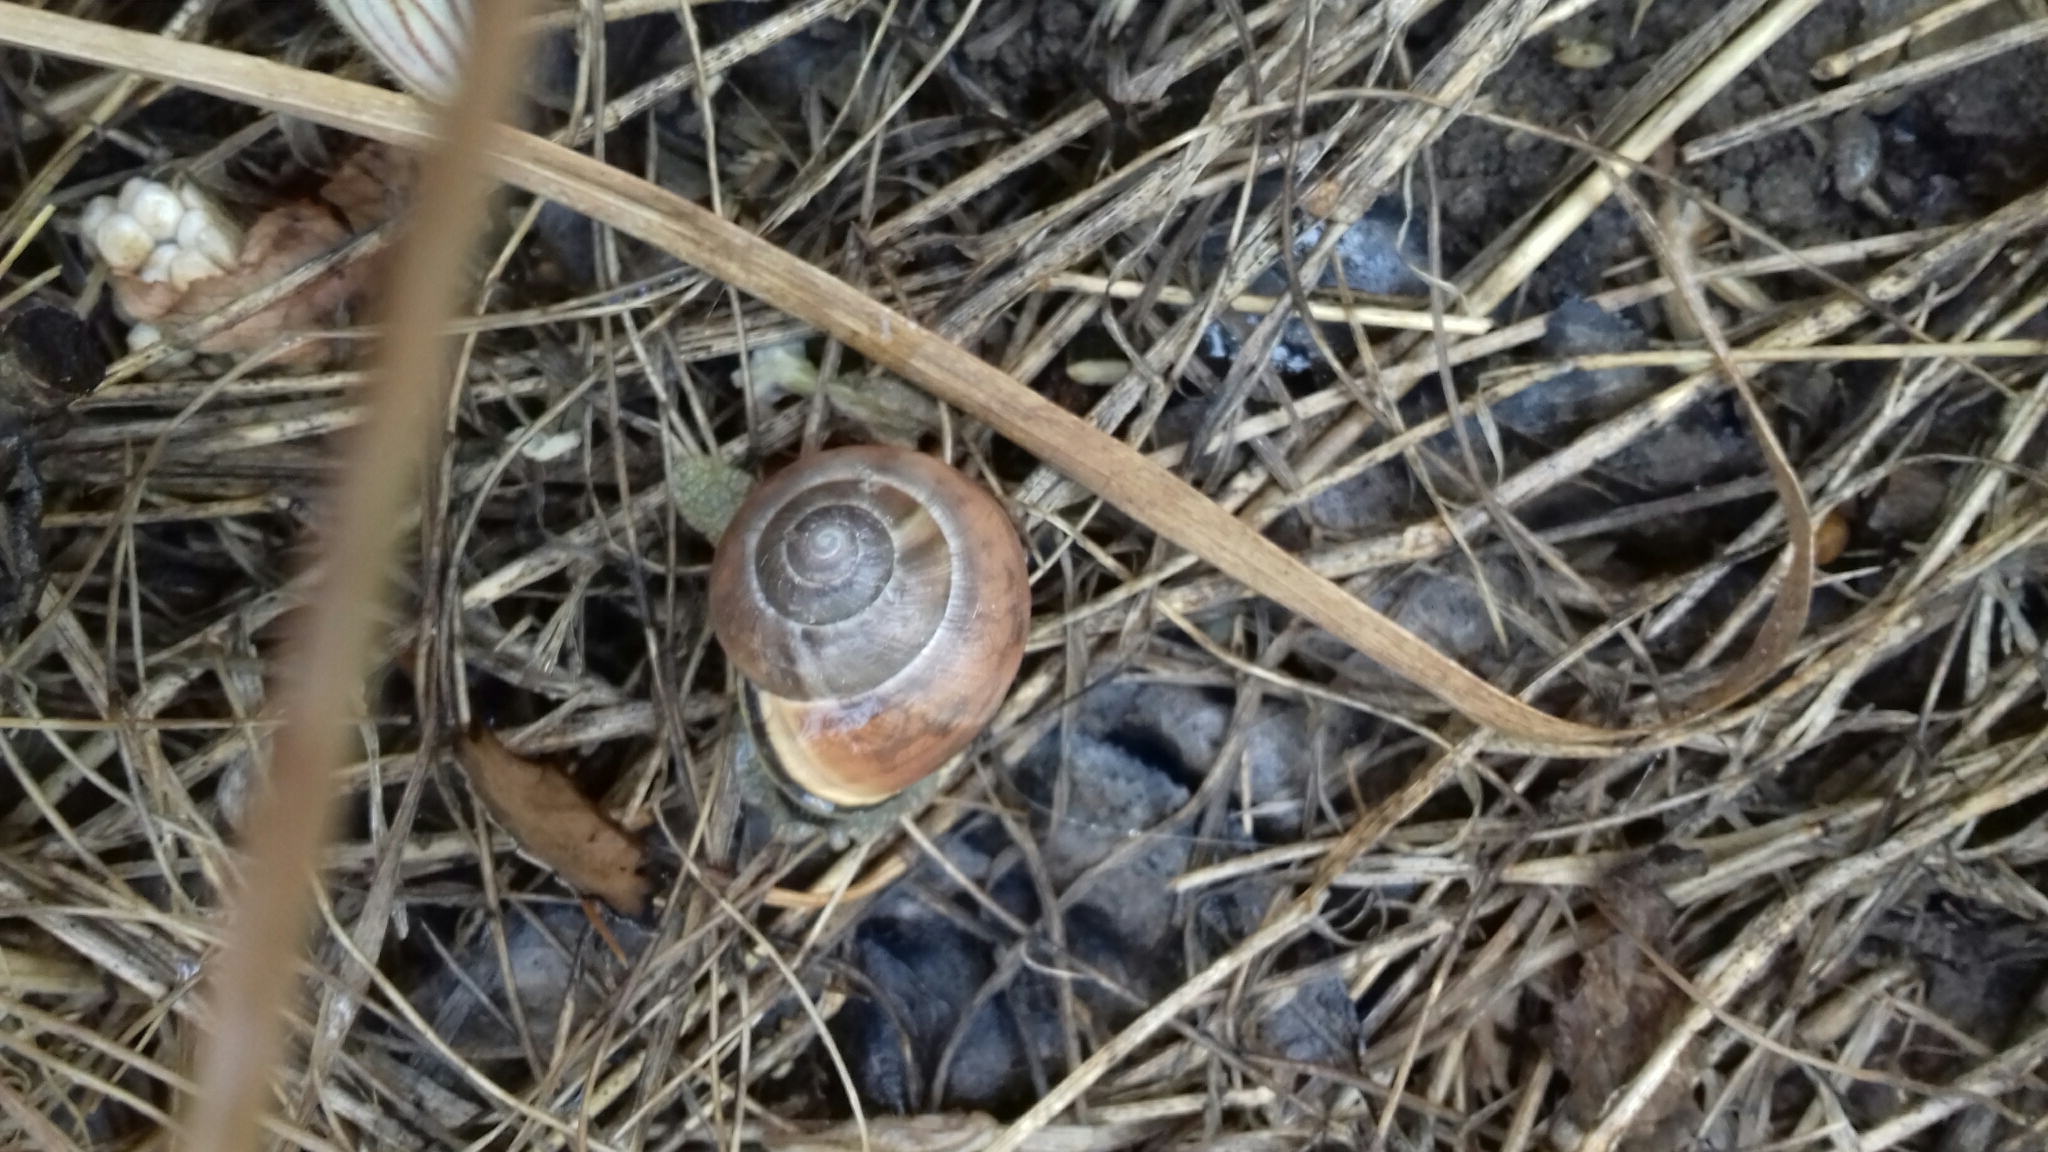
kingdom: Animalia
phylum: Mollusca
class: Gastropoda
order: Stylommatophora
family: Helicidae
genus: Cepaea
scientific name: Cepaea nemoralis
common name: Grovesnail
